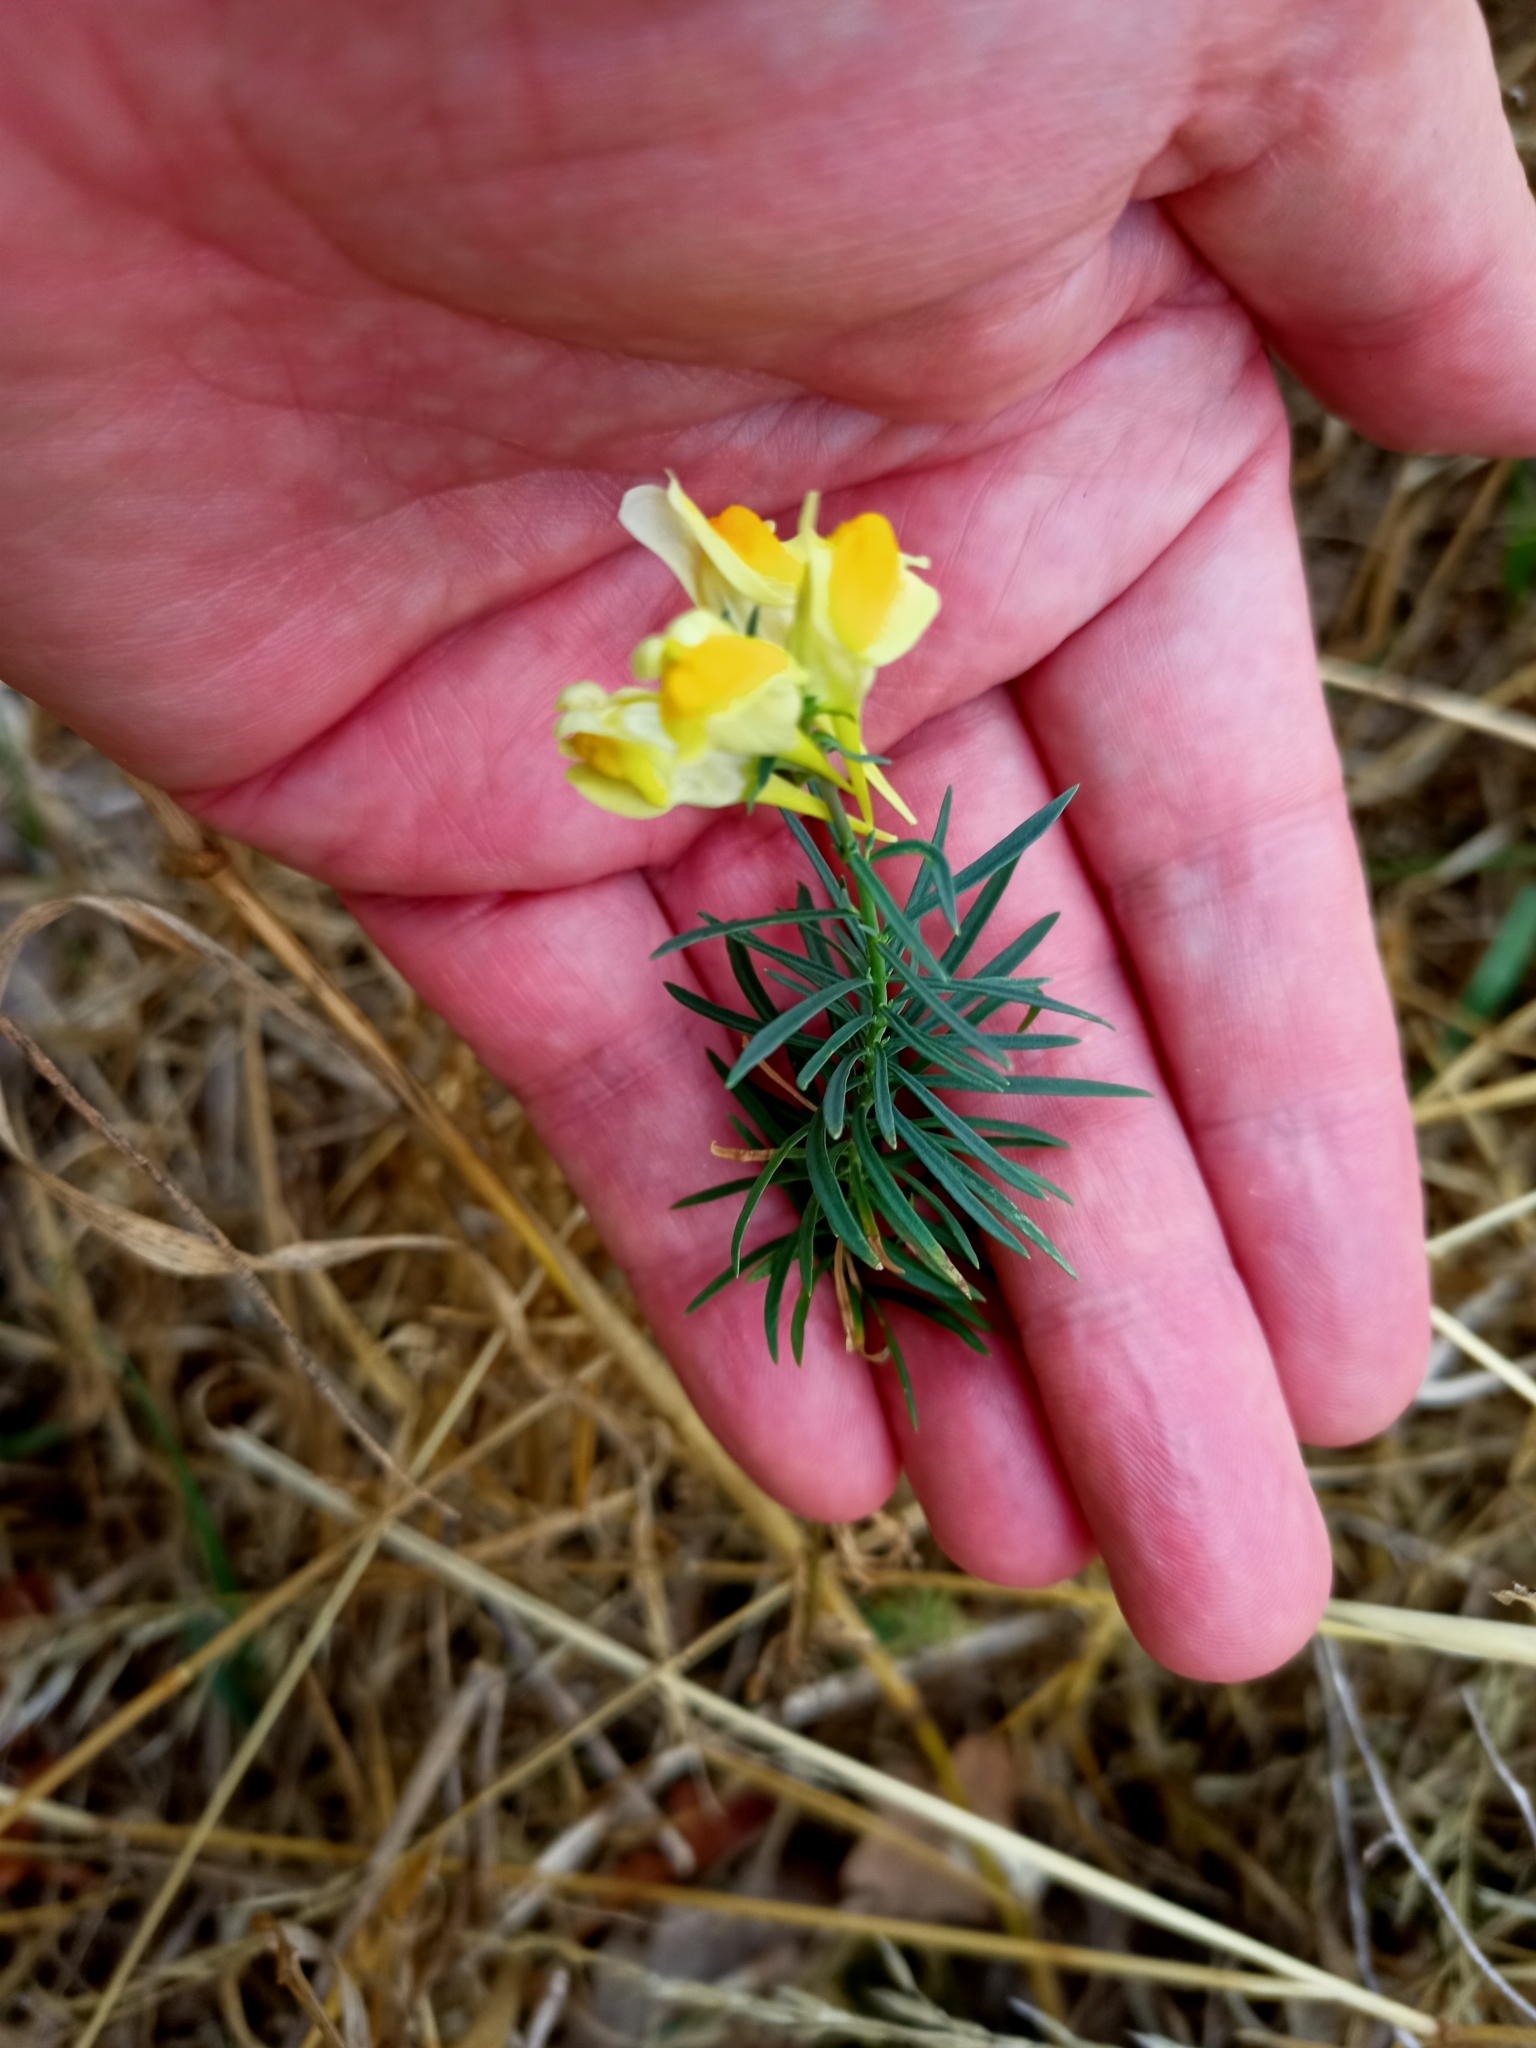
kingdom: Plantae
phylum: Tracheophyta
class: Magnoliopsida
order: Lamiales
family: Plantaginaceae
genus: Linaria
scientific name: Linaria vulgaris
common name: Butter and eggs
